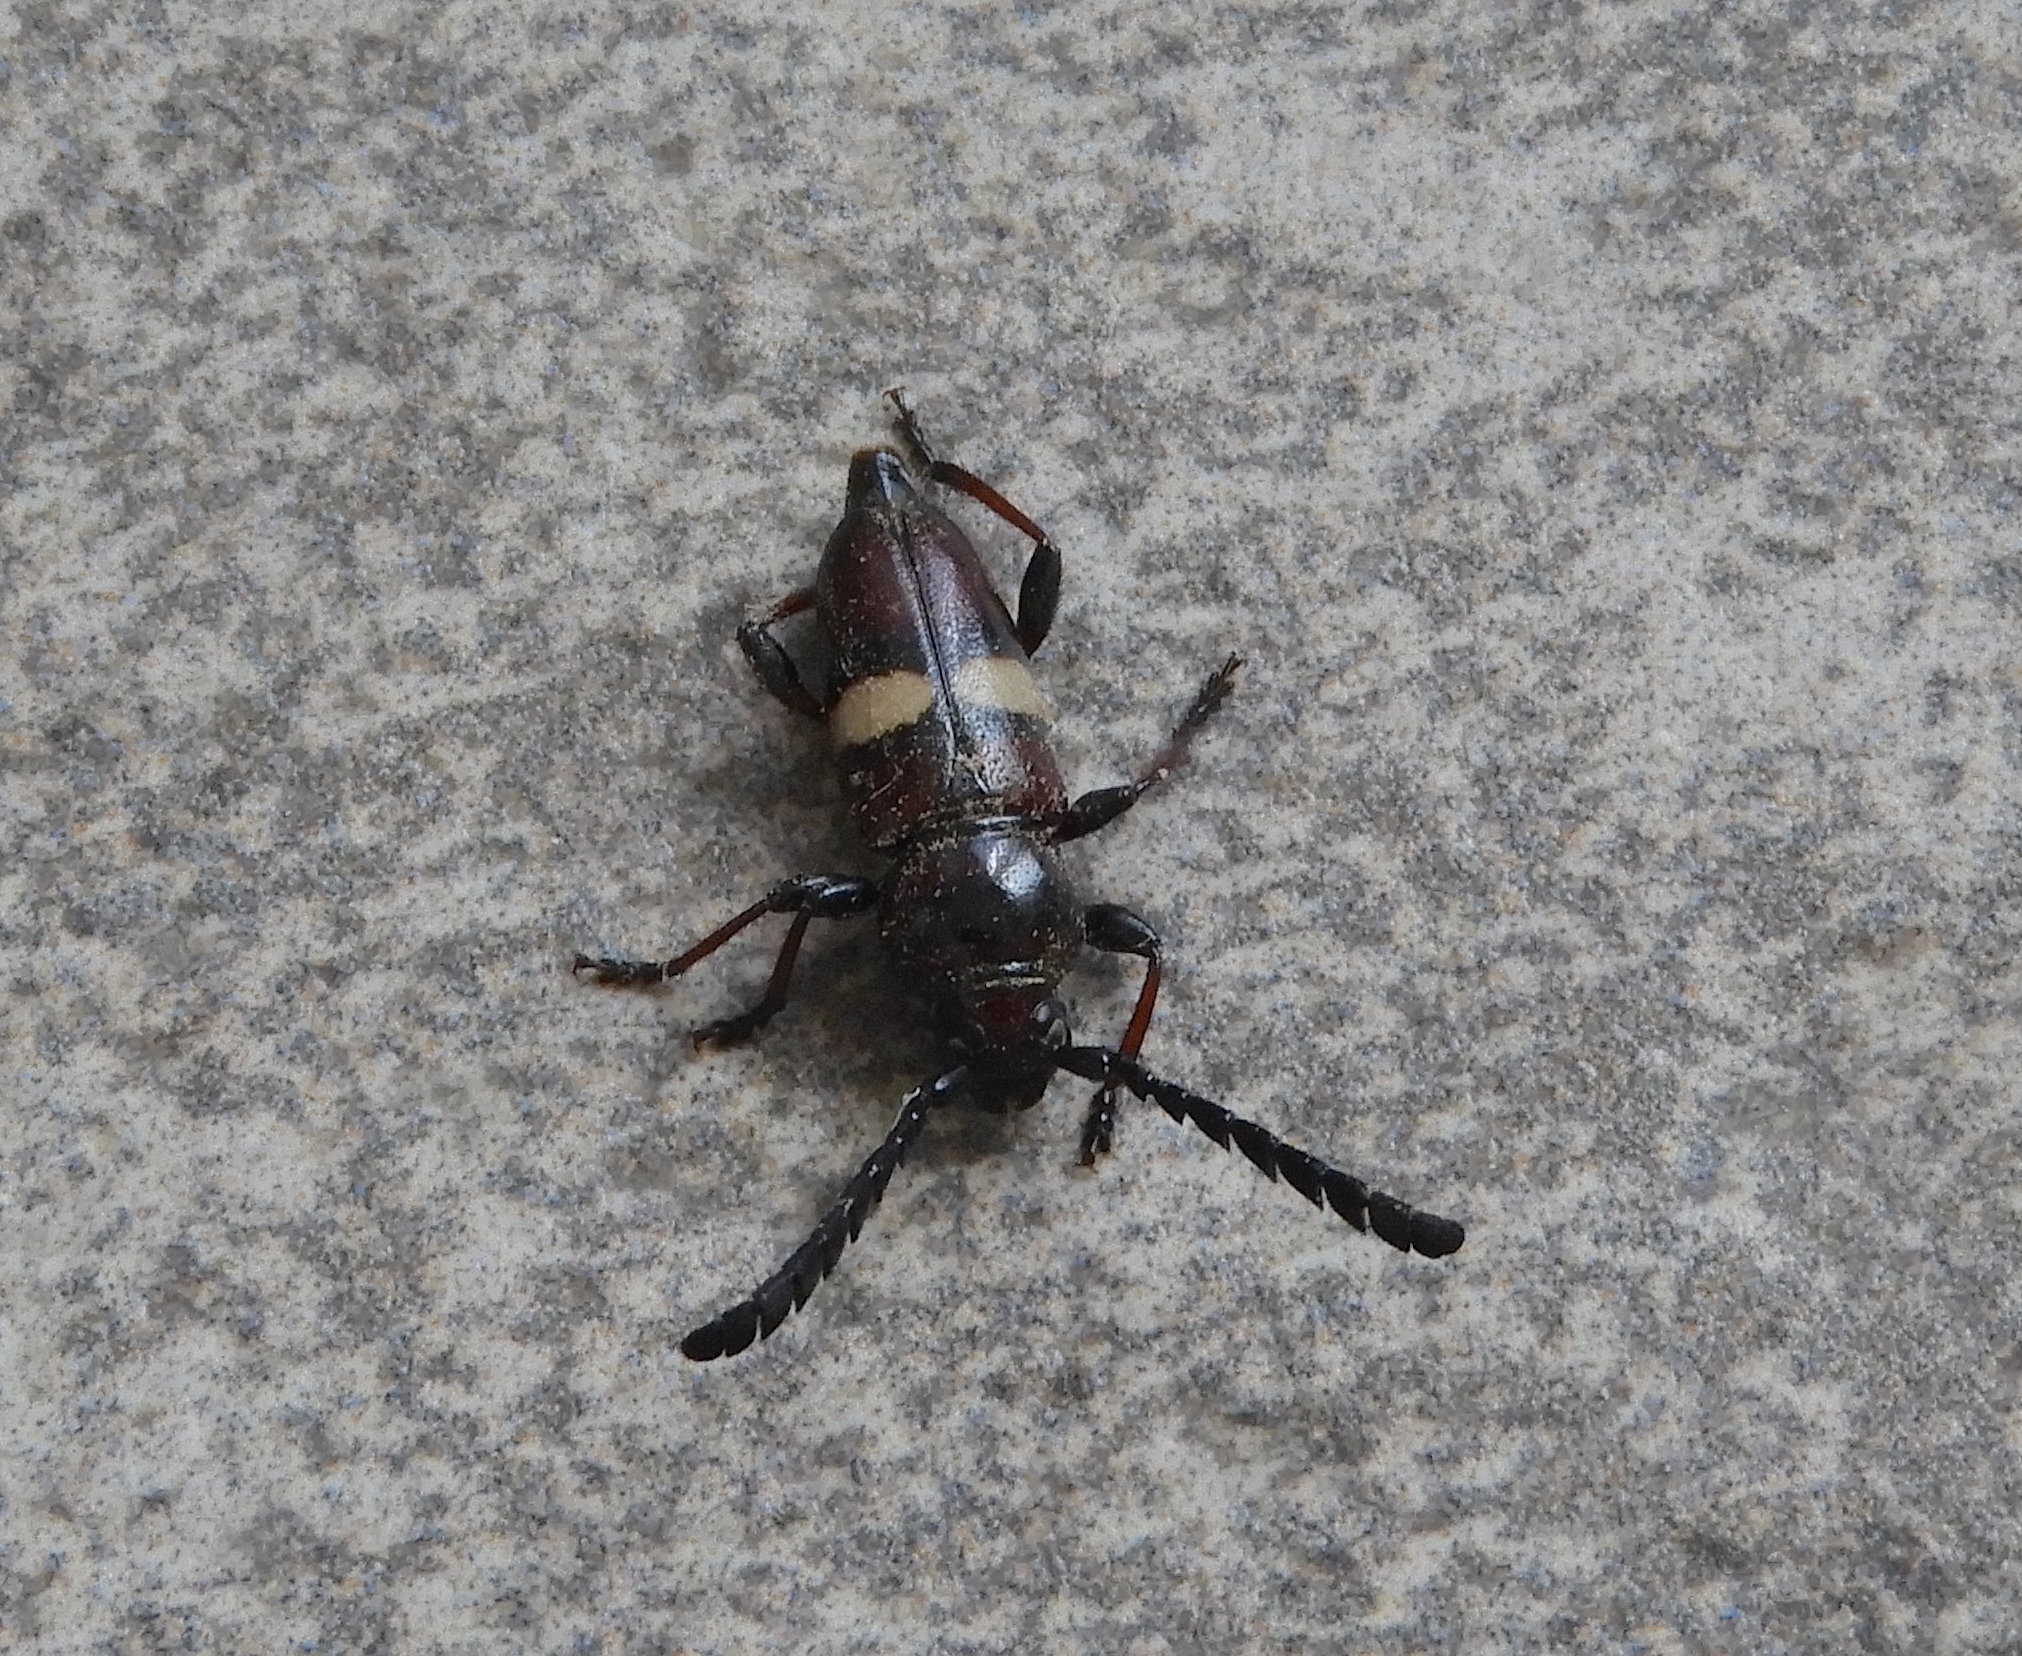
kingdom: Animalia
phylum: Arthropoda
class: Insecta
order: Coleoptera
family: Cerambycidae
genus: Lissonotus
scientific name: Lissonotus flavocinctus
